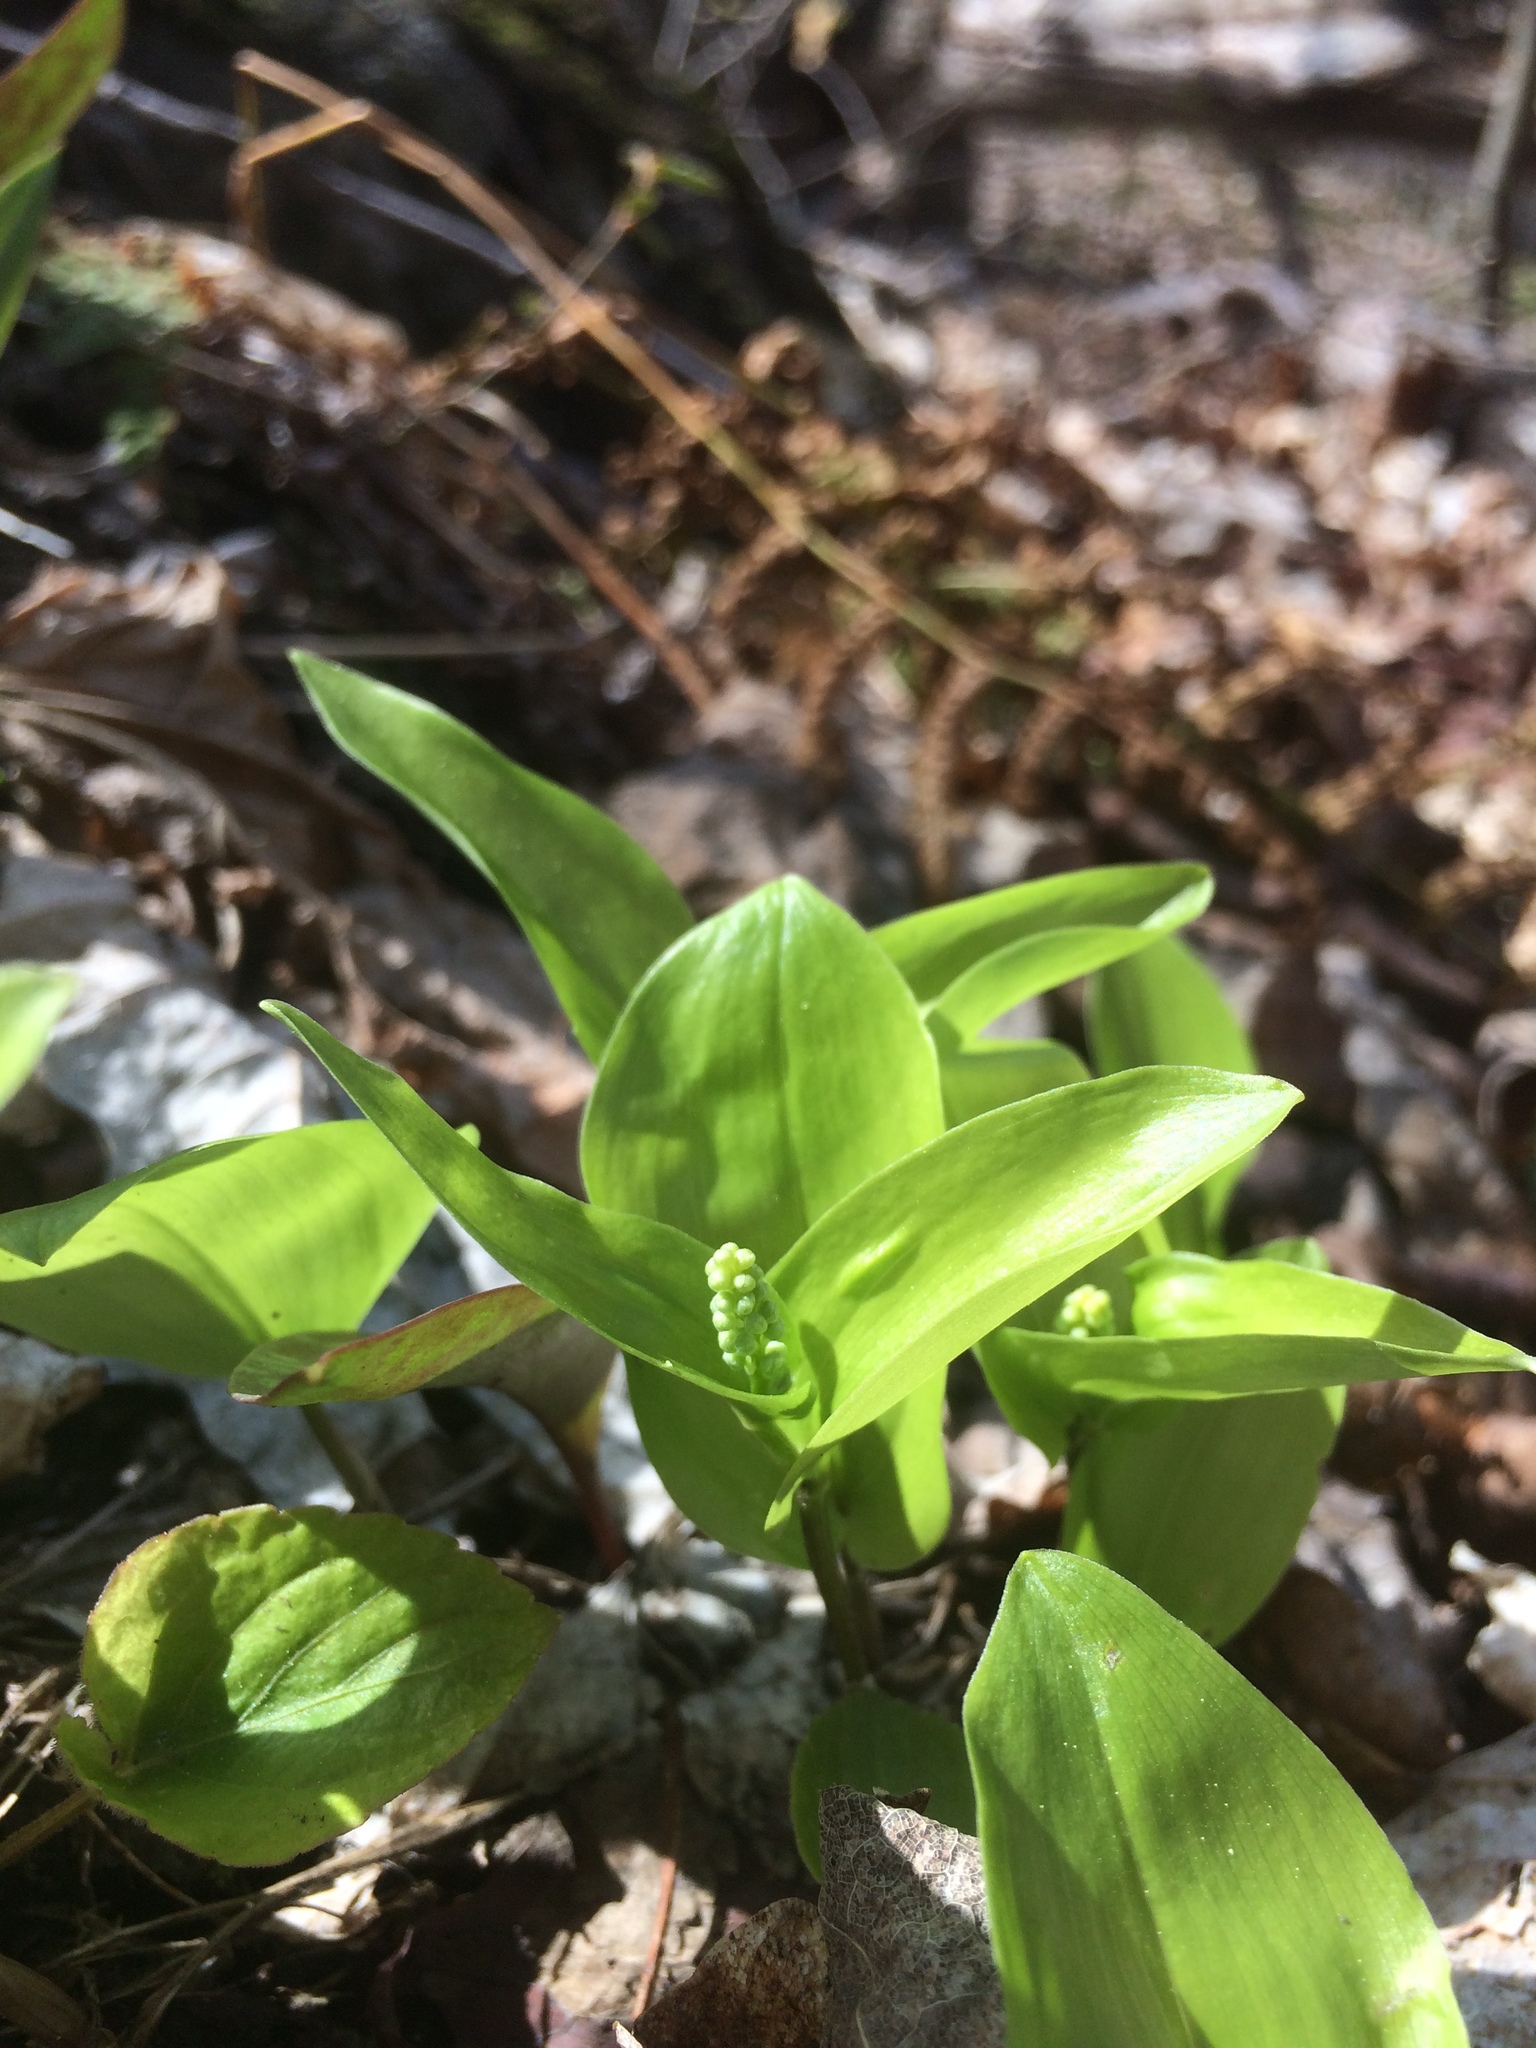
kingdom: Plantae
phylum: Tracheophyta
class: Liliopsida
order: Asparagales
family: Asparagaceae
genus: Maianthemum
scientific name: Maianthemum canadense
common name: False lily-of-the-valley
